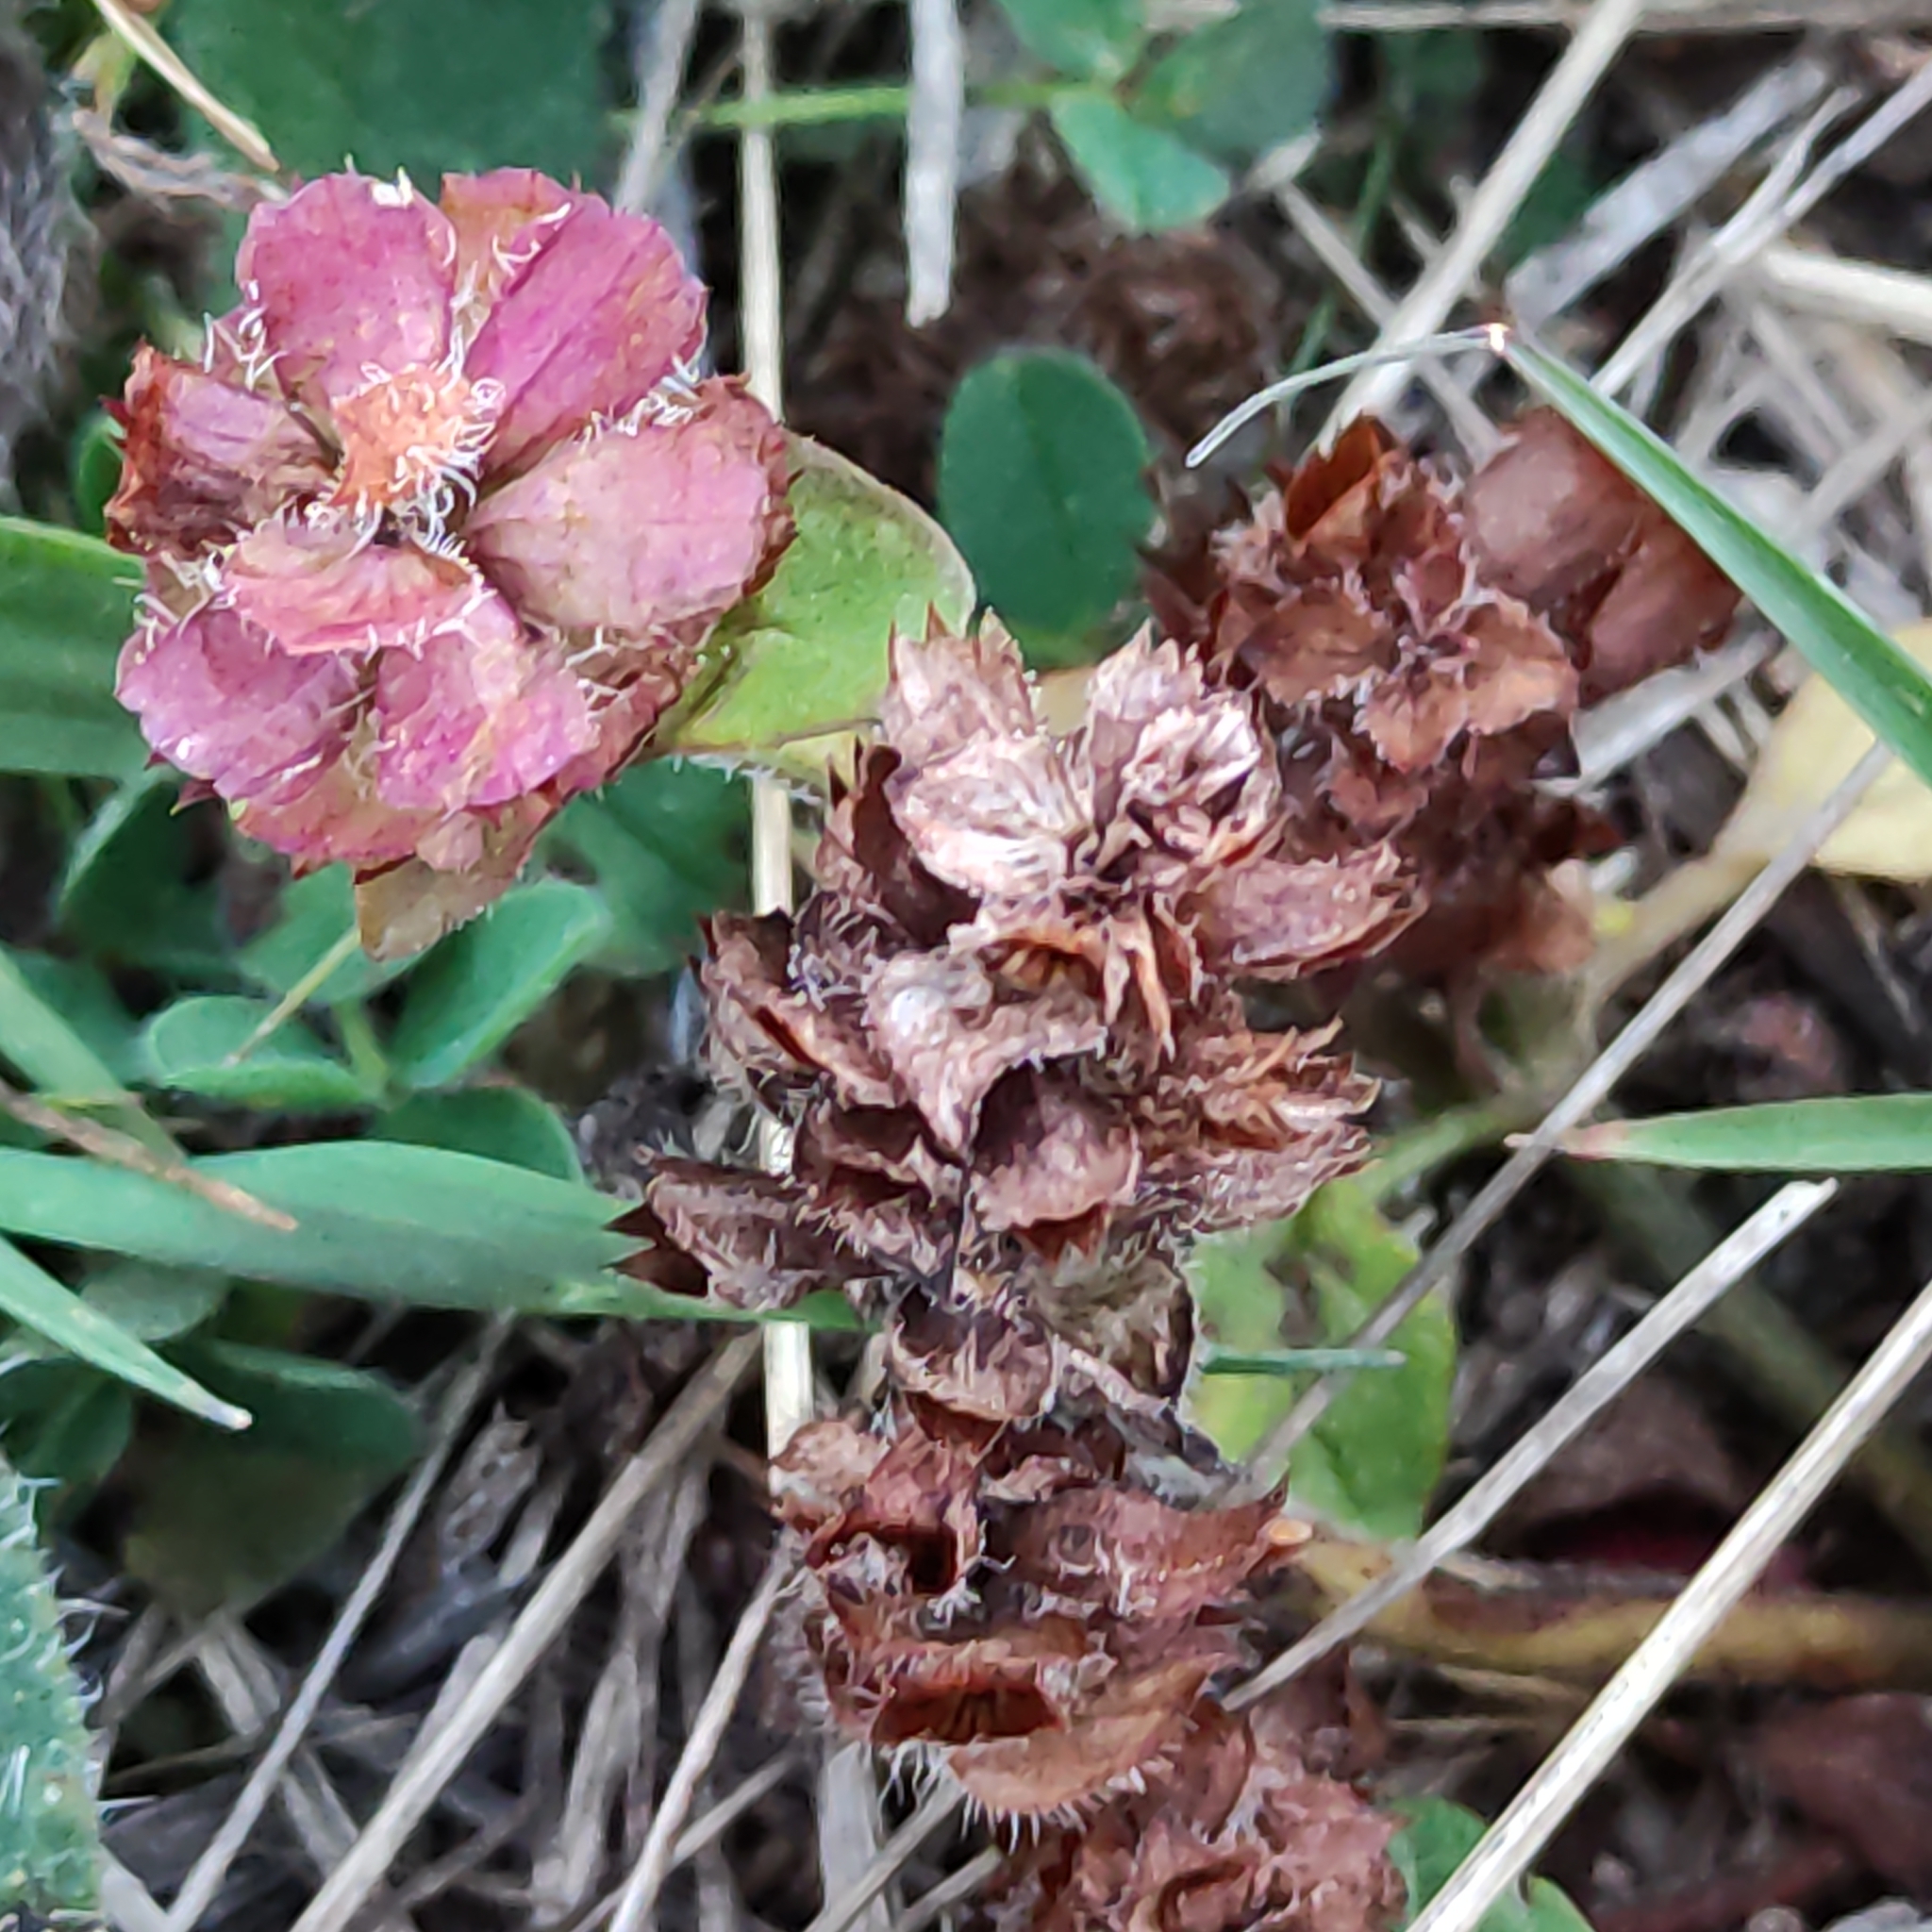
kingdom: Plantae
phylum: Tracheophyta
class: Magnoliopsida
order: Lamiales
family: Lamiaceae
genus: Prunella
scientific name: Prunella vulgaris
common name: Heal-all
